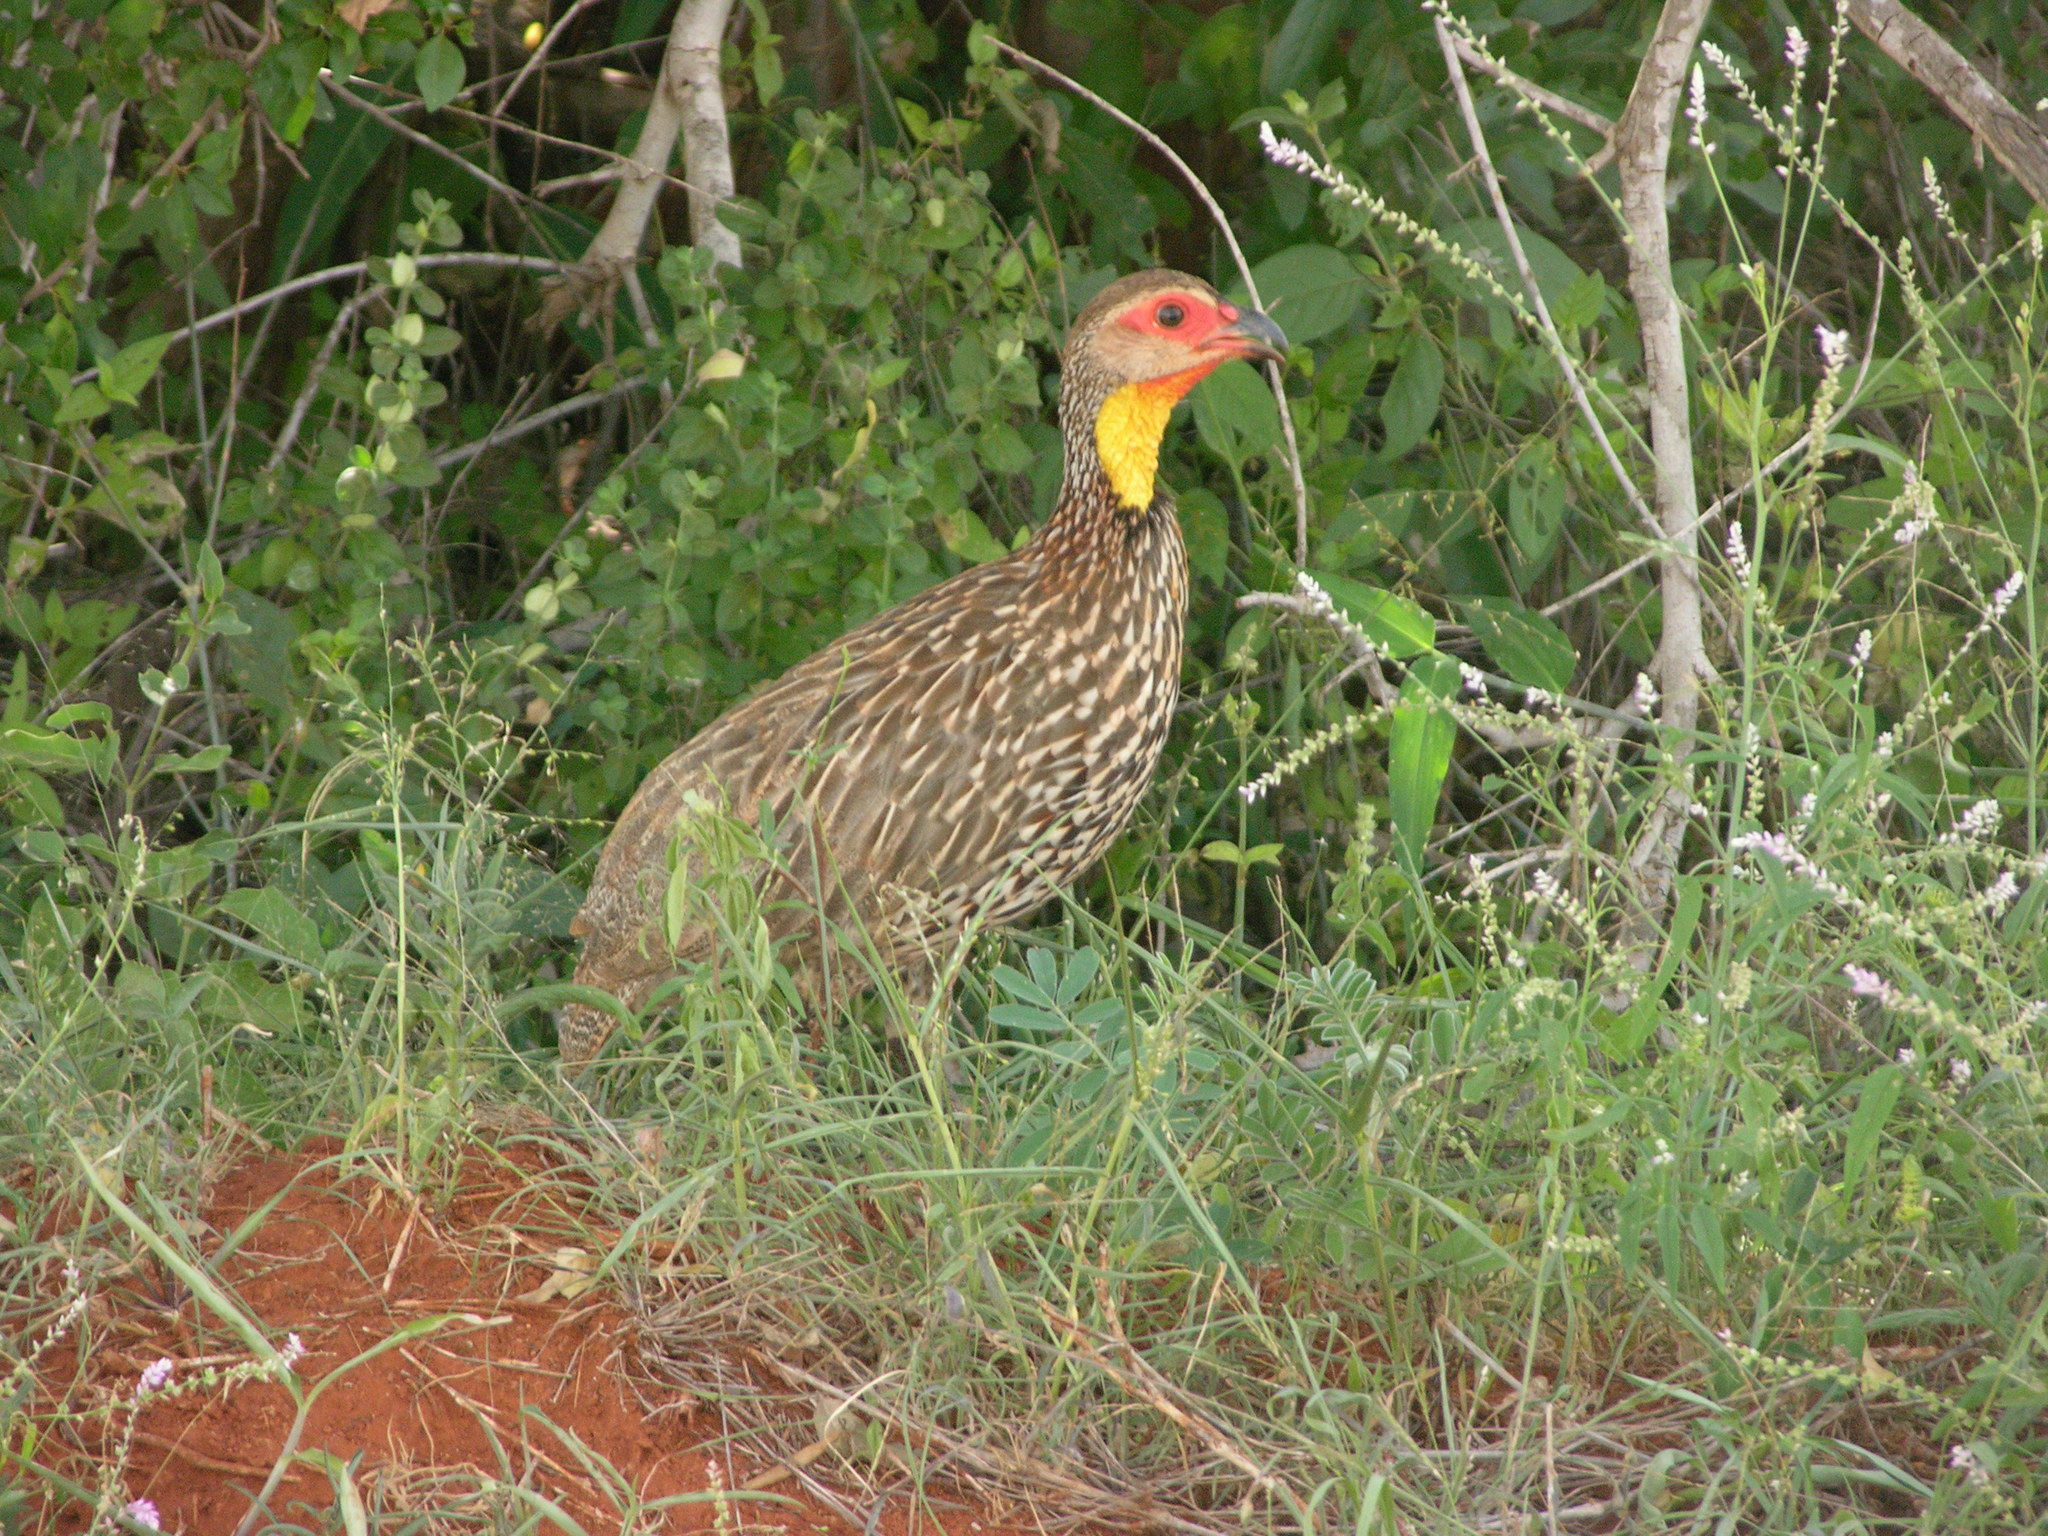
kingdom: Animalia
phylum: Chordata
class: Aves
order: Galliformes
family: Phasianidae
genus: Pternistis
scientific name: Pternistis leucoscepus
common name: Yellow-necked spurfowl
